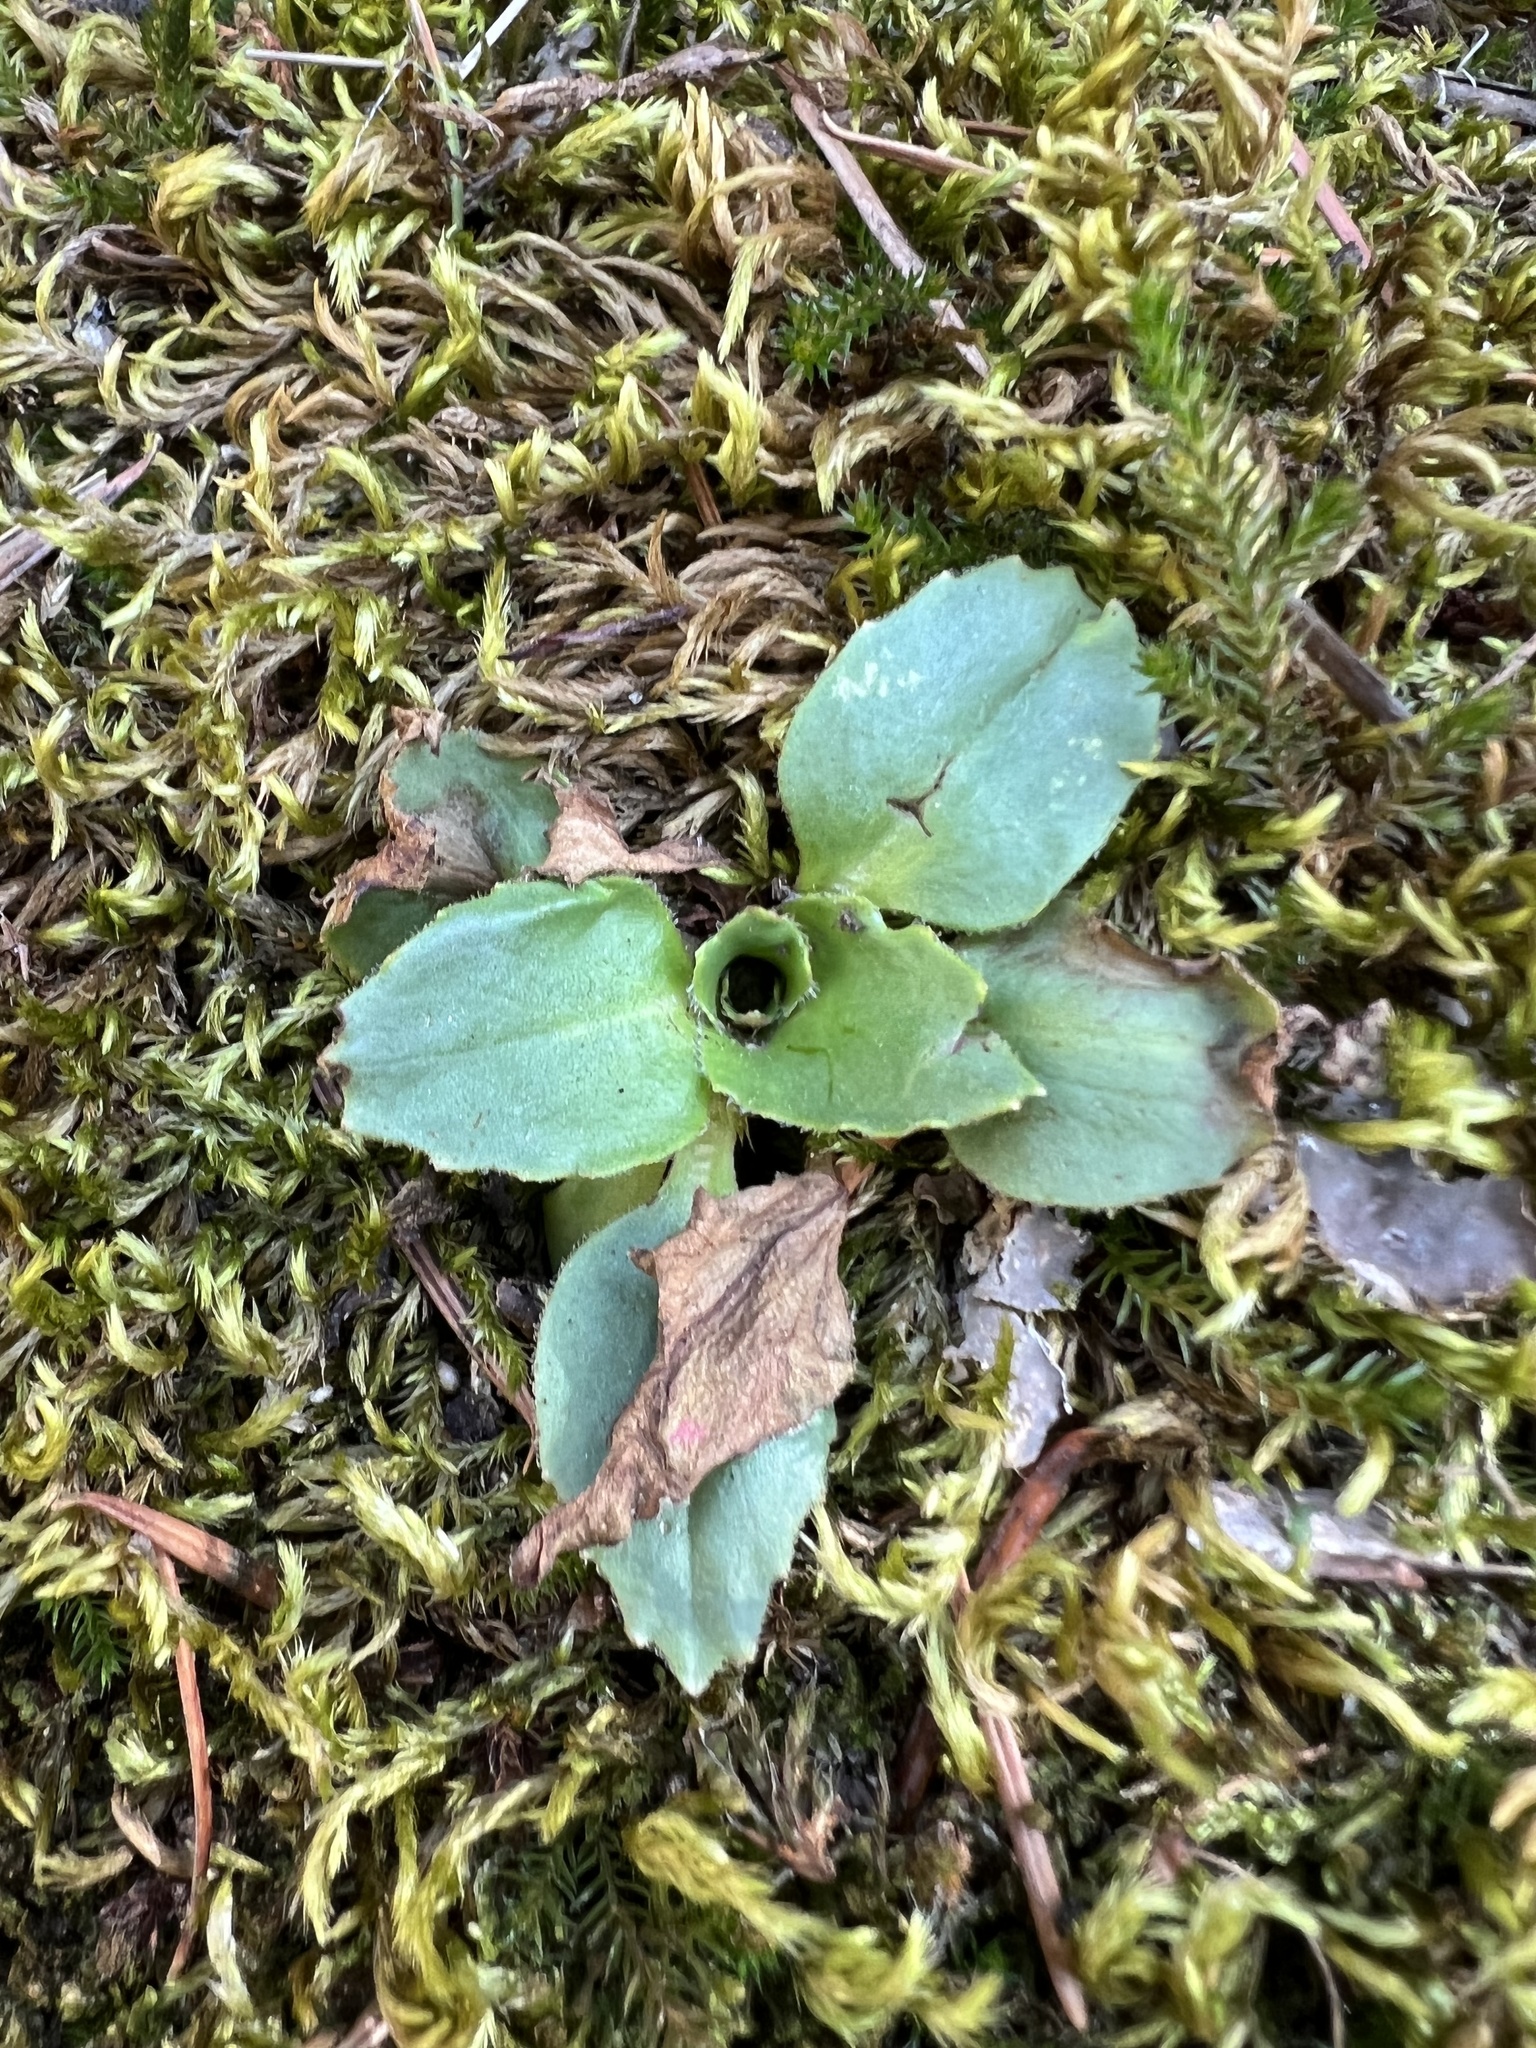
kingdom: Plantae
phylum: Tracheophyta
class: Magnoliopsida
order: Saxifragales
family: Saxifragaceae
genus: Micranthes
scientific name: Micranthes rhomboidea
